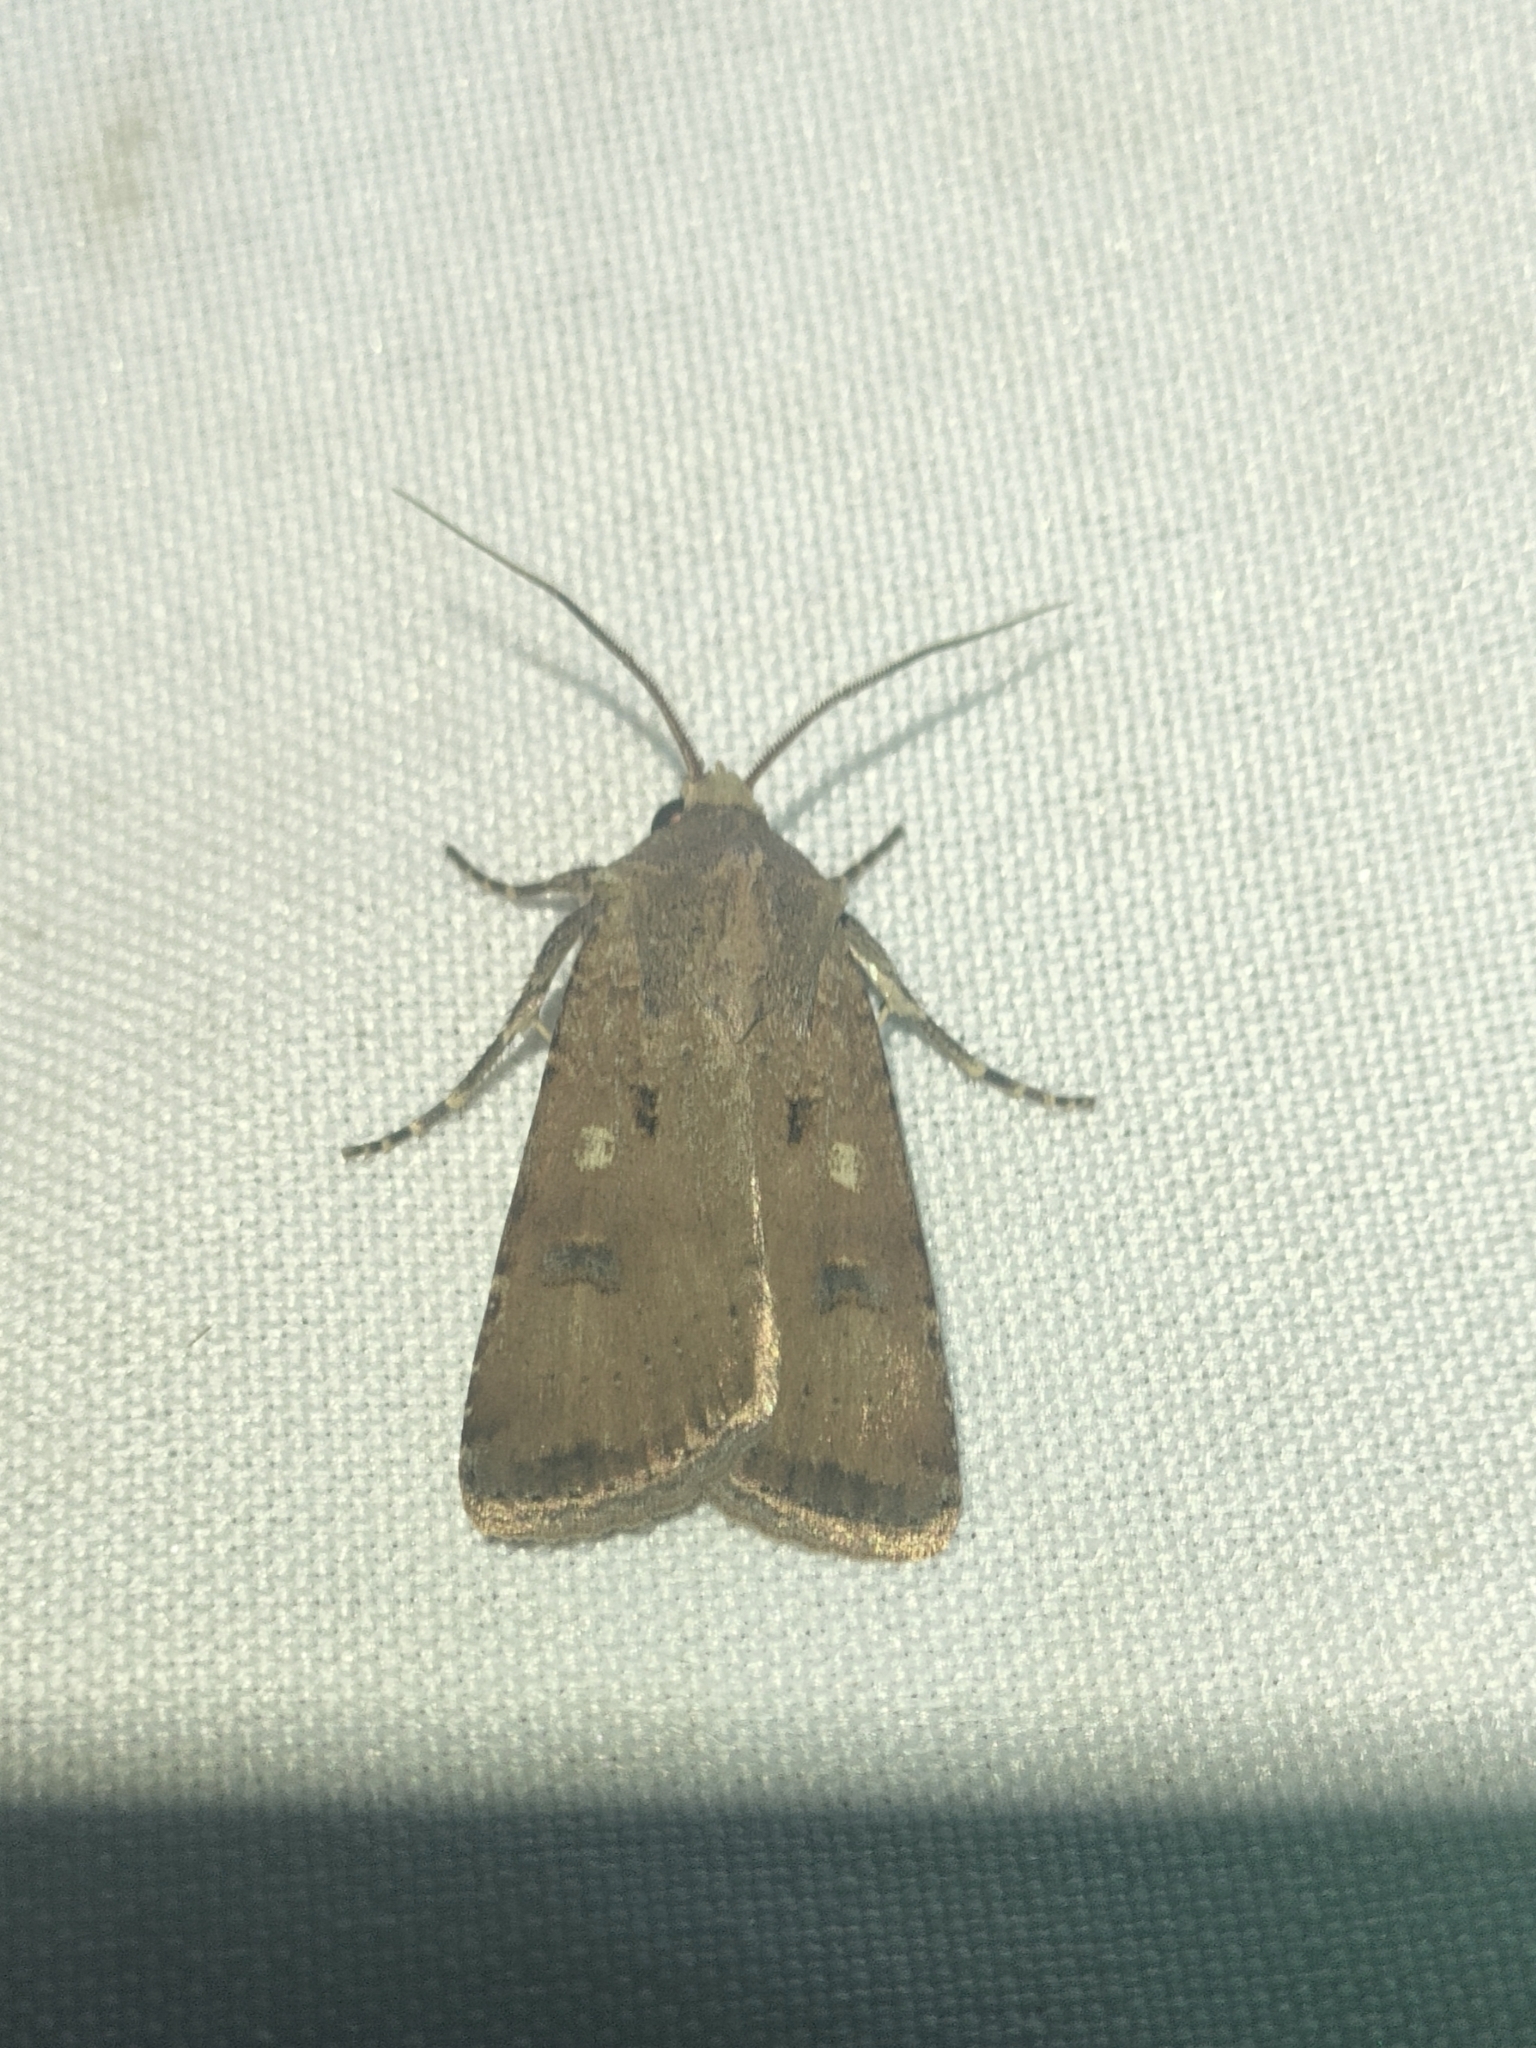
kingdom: Animalia
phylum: Arthropoda
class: Insecta
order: Lepidoptera
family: Noctuidae
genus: Agrotis
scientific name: Agrotis trux
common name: Crescent dart
